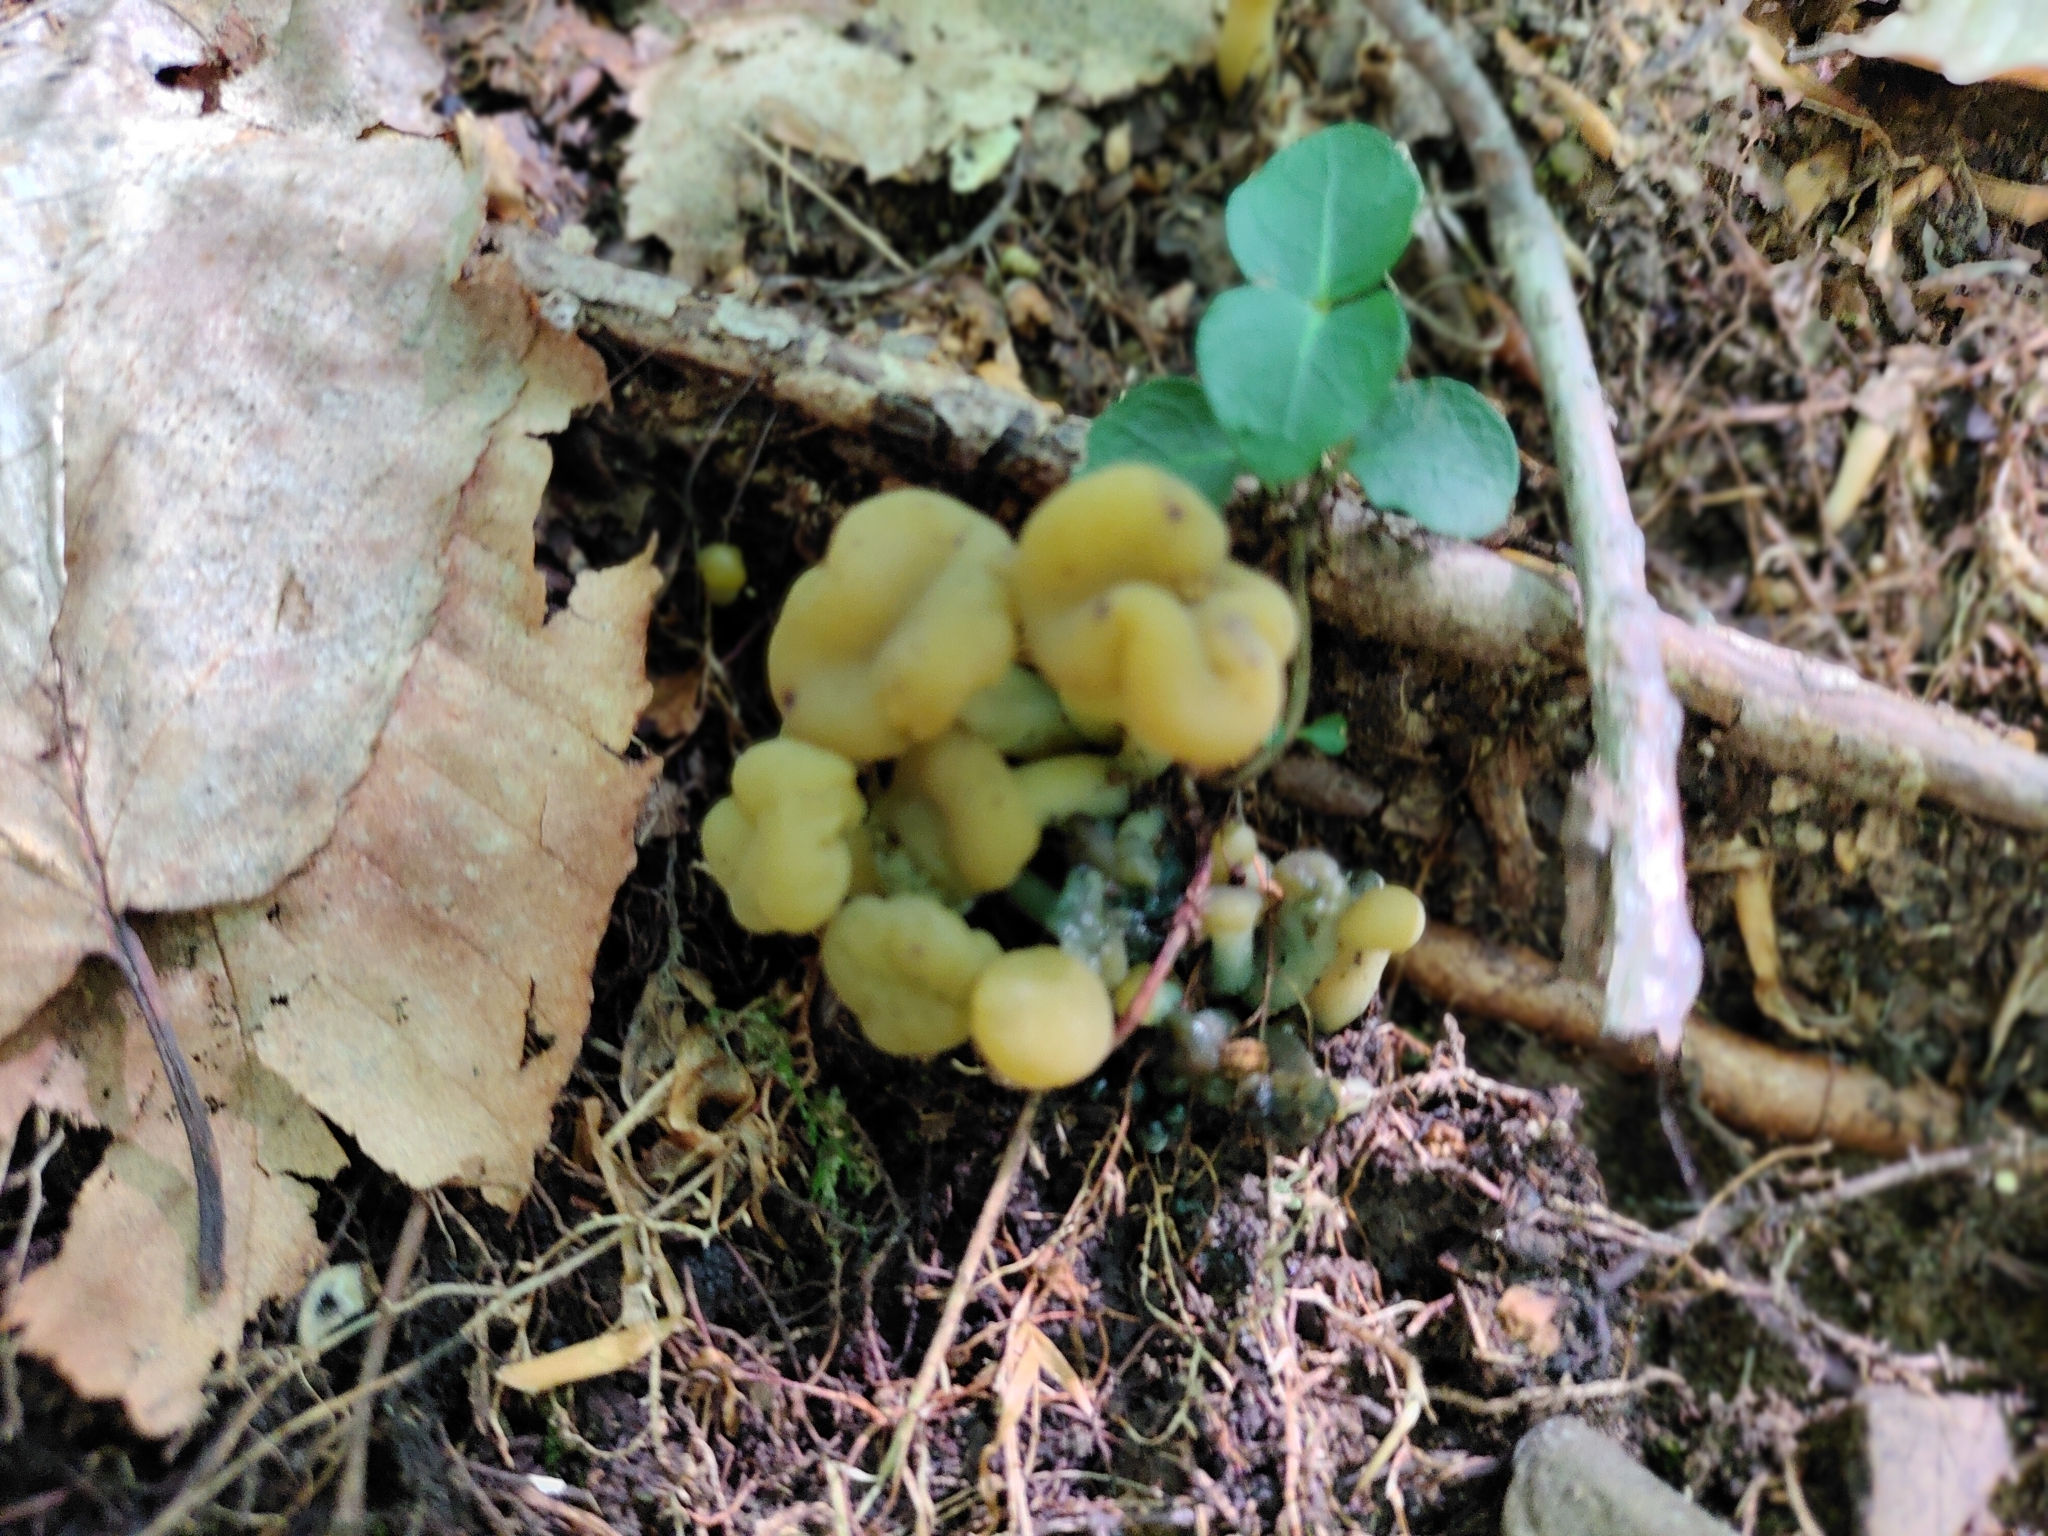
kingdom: Fungi
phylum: Ascomycota
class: Leotiomycetes
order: Leotiales
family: Leotiaceae
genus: Leotia
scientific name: Leotia lubrica
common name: Jellybaby
